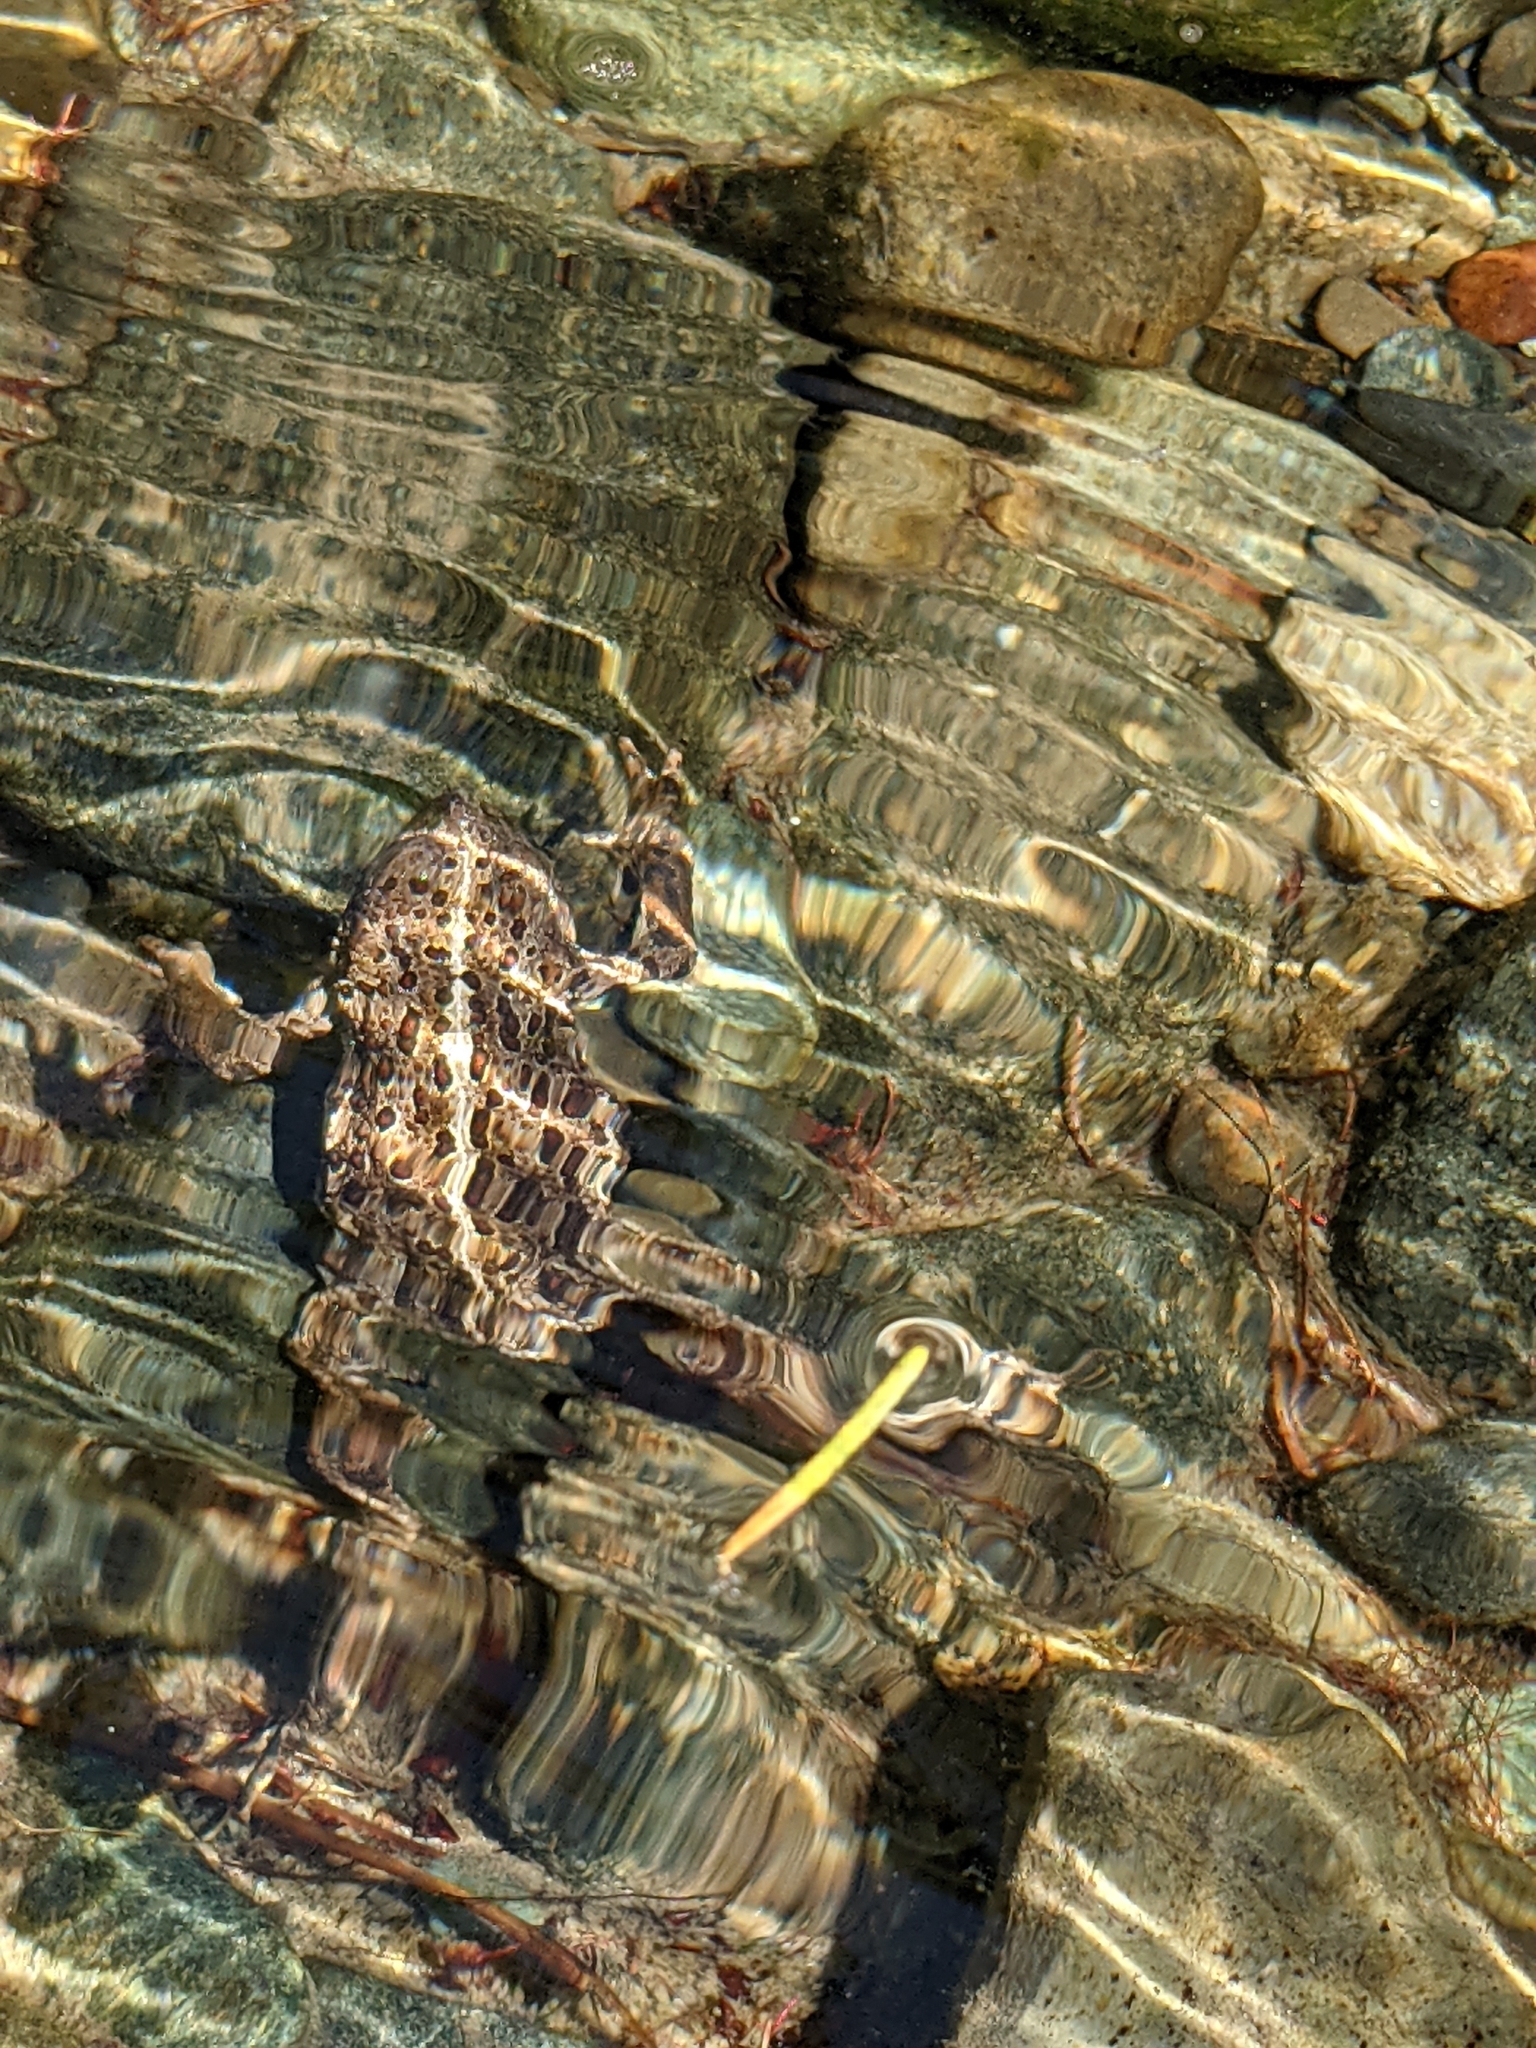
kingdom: Animalia
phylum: Chordata
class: Amphibia
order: Anura
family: Bufonidae
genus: Anaxyrus
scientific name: Anaxyrus boreas
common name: Western toad
